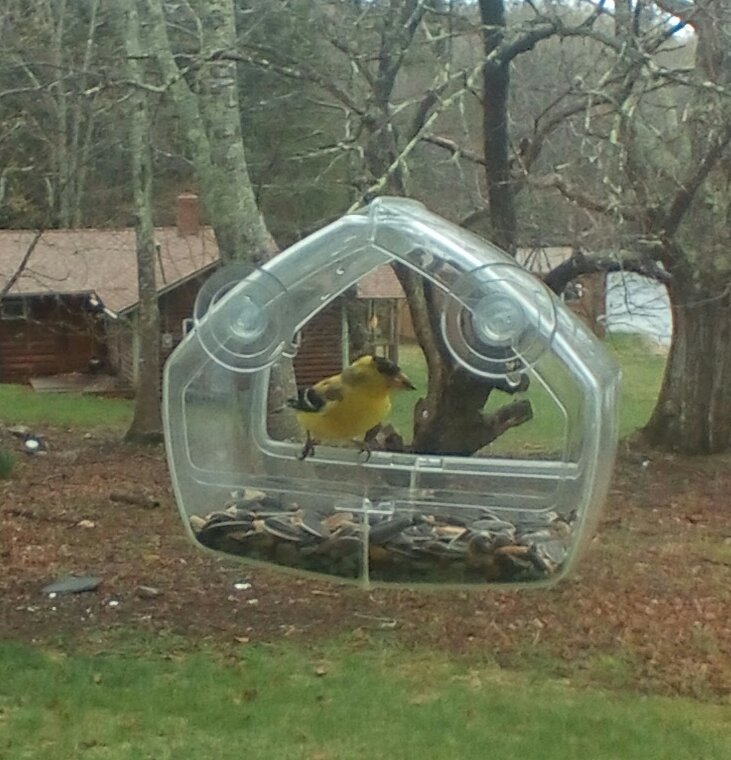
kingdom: Animalia
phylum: Chordata
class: Aves
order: Passeriformes
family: Fringillidae
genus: Spinus
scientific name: Spinus tristis
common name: American goldfinch
